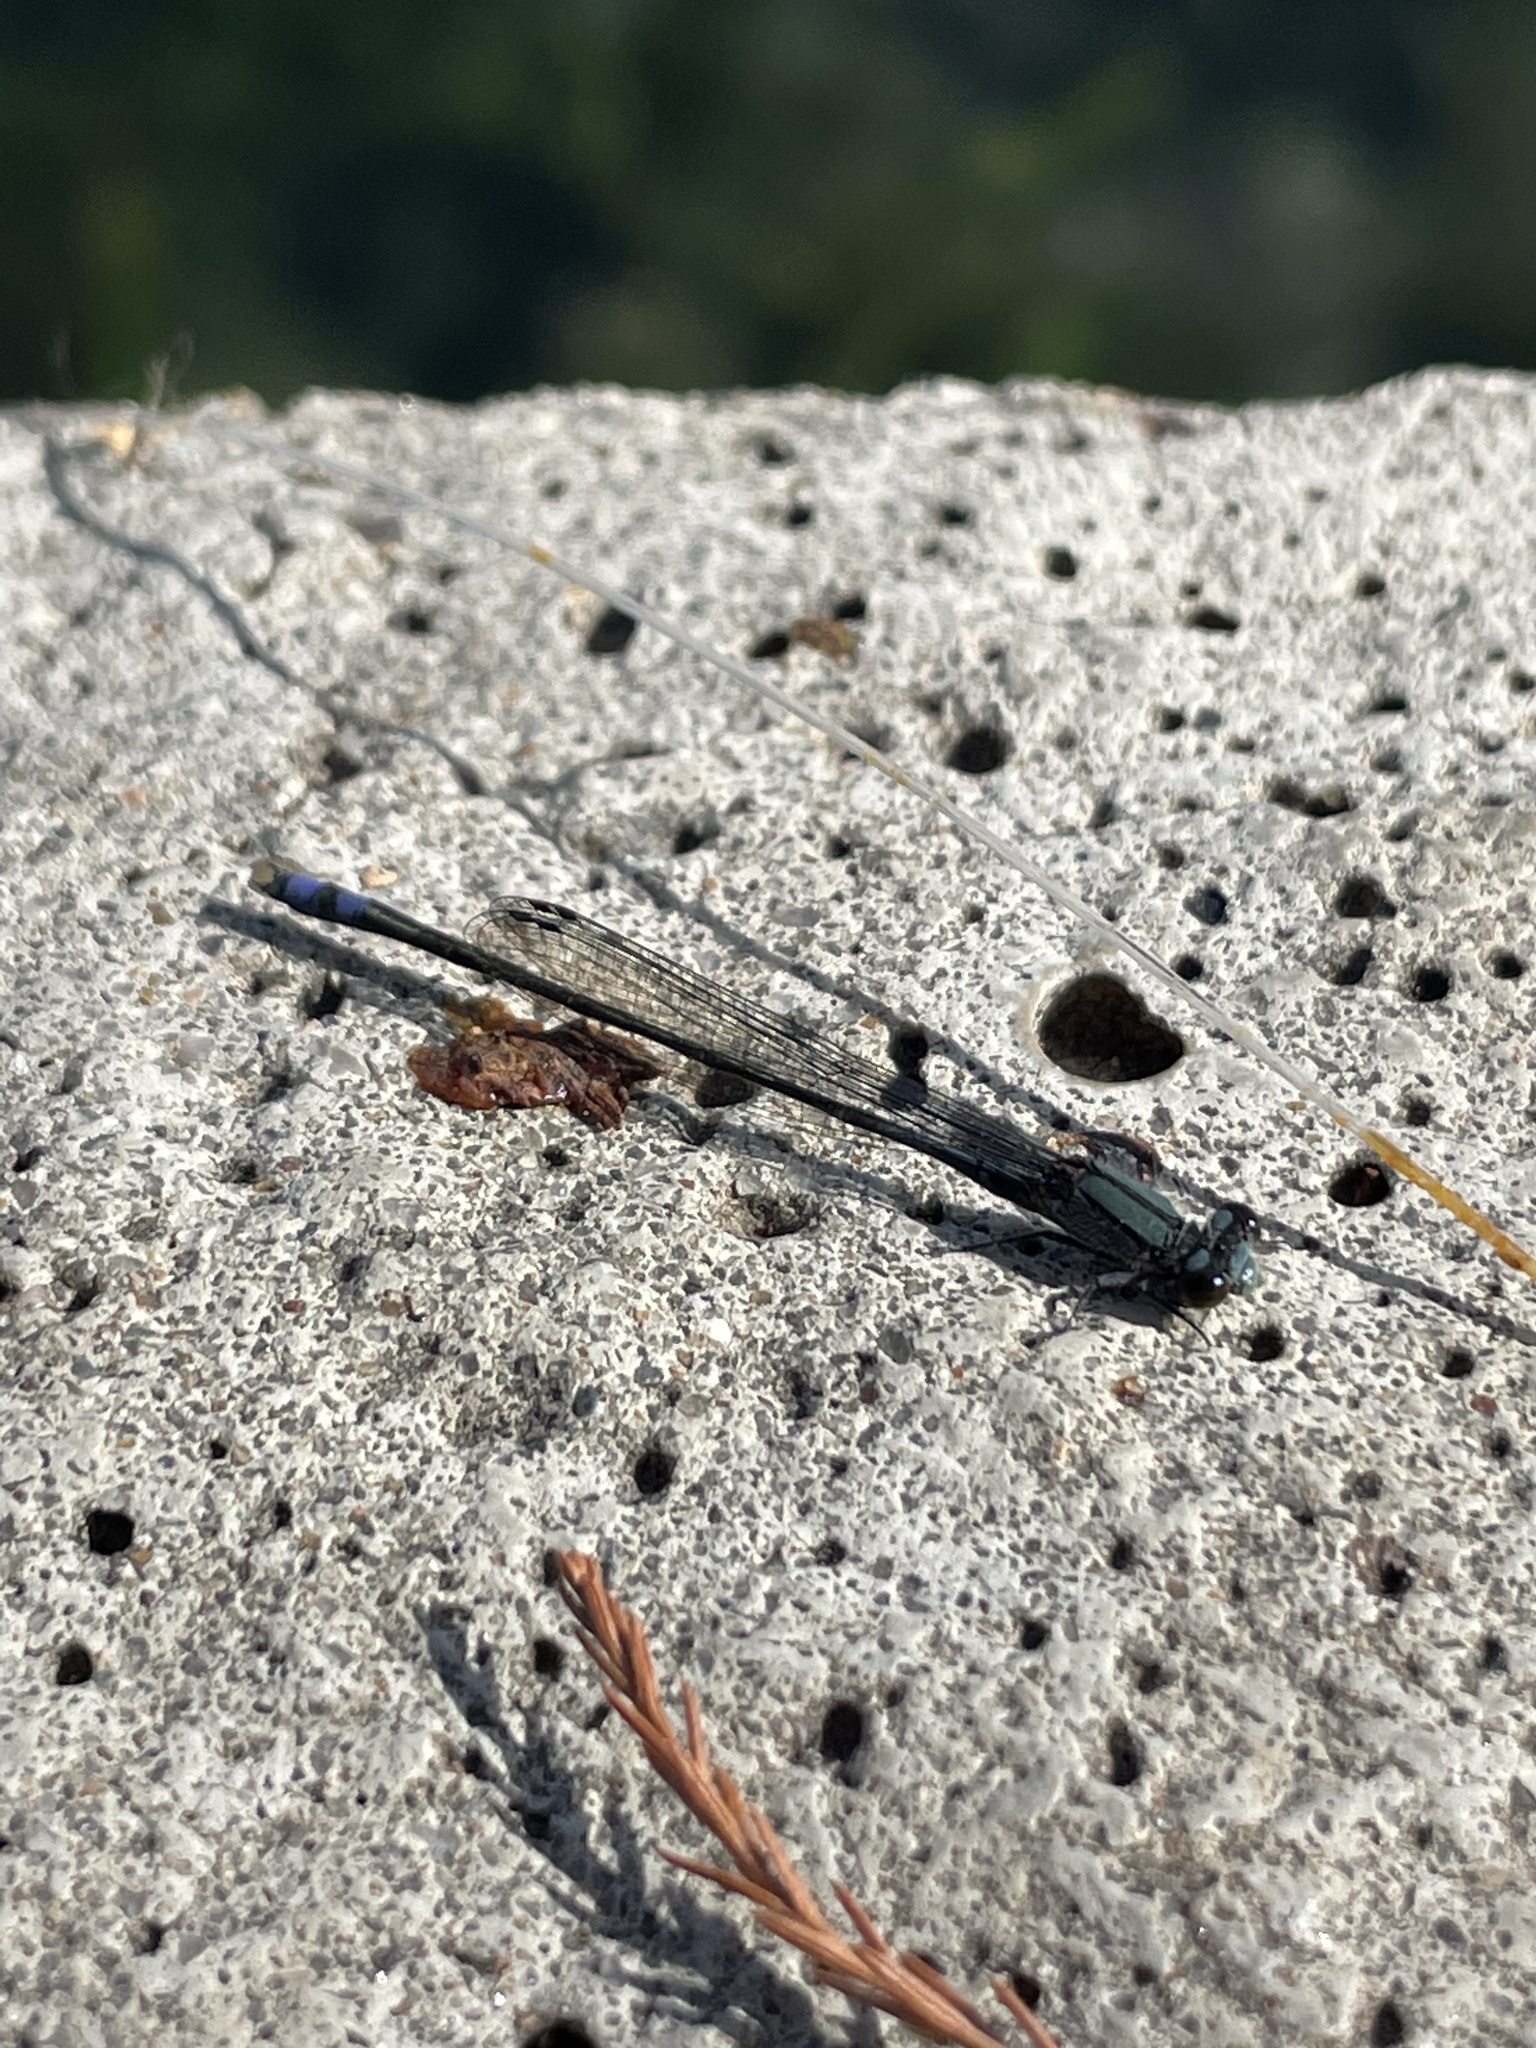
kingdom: Animalia
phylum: Arthropoda
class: Insecta
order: Odonata
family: Coenagrionidae
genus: Enallagma
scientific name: Enallagma novaehispaniae
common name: Neotropical bluet
